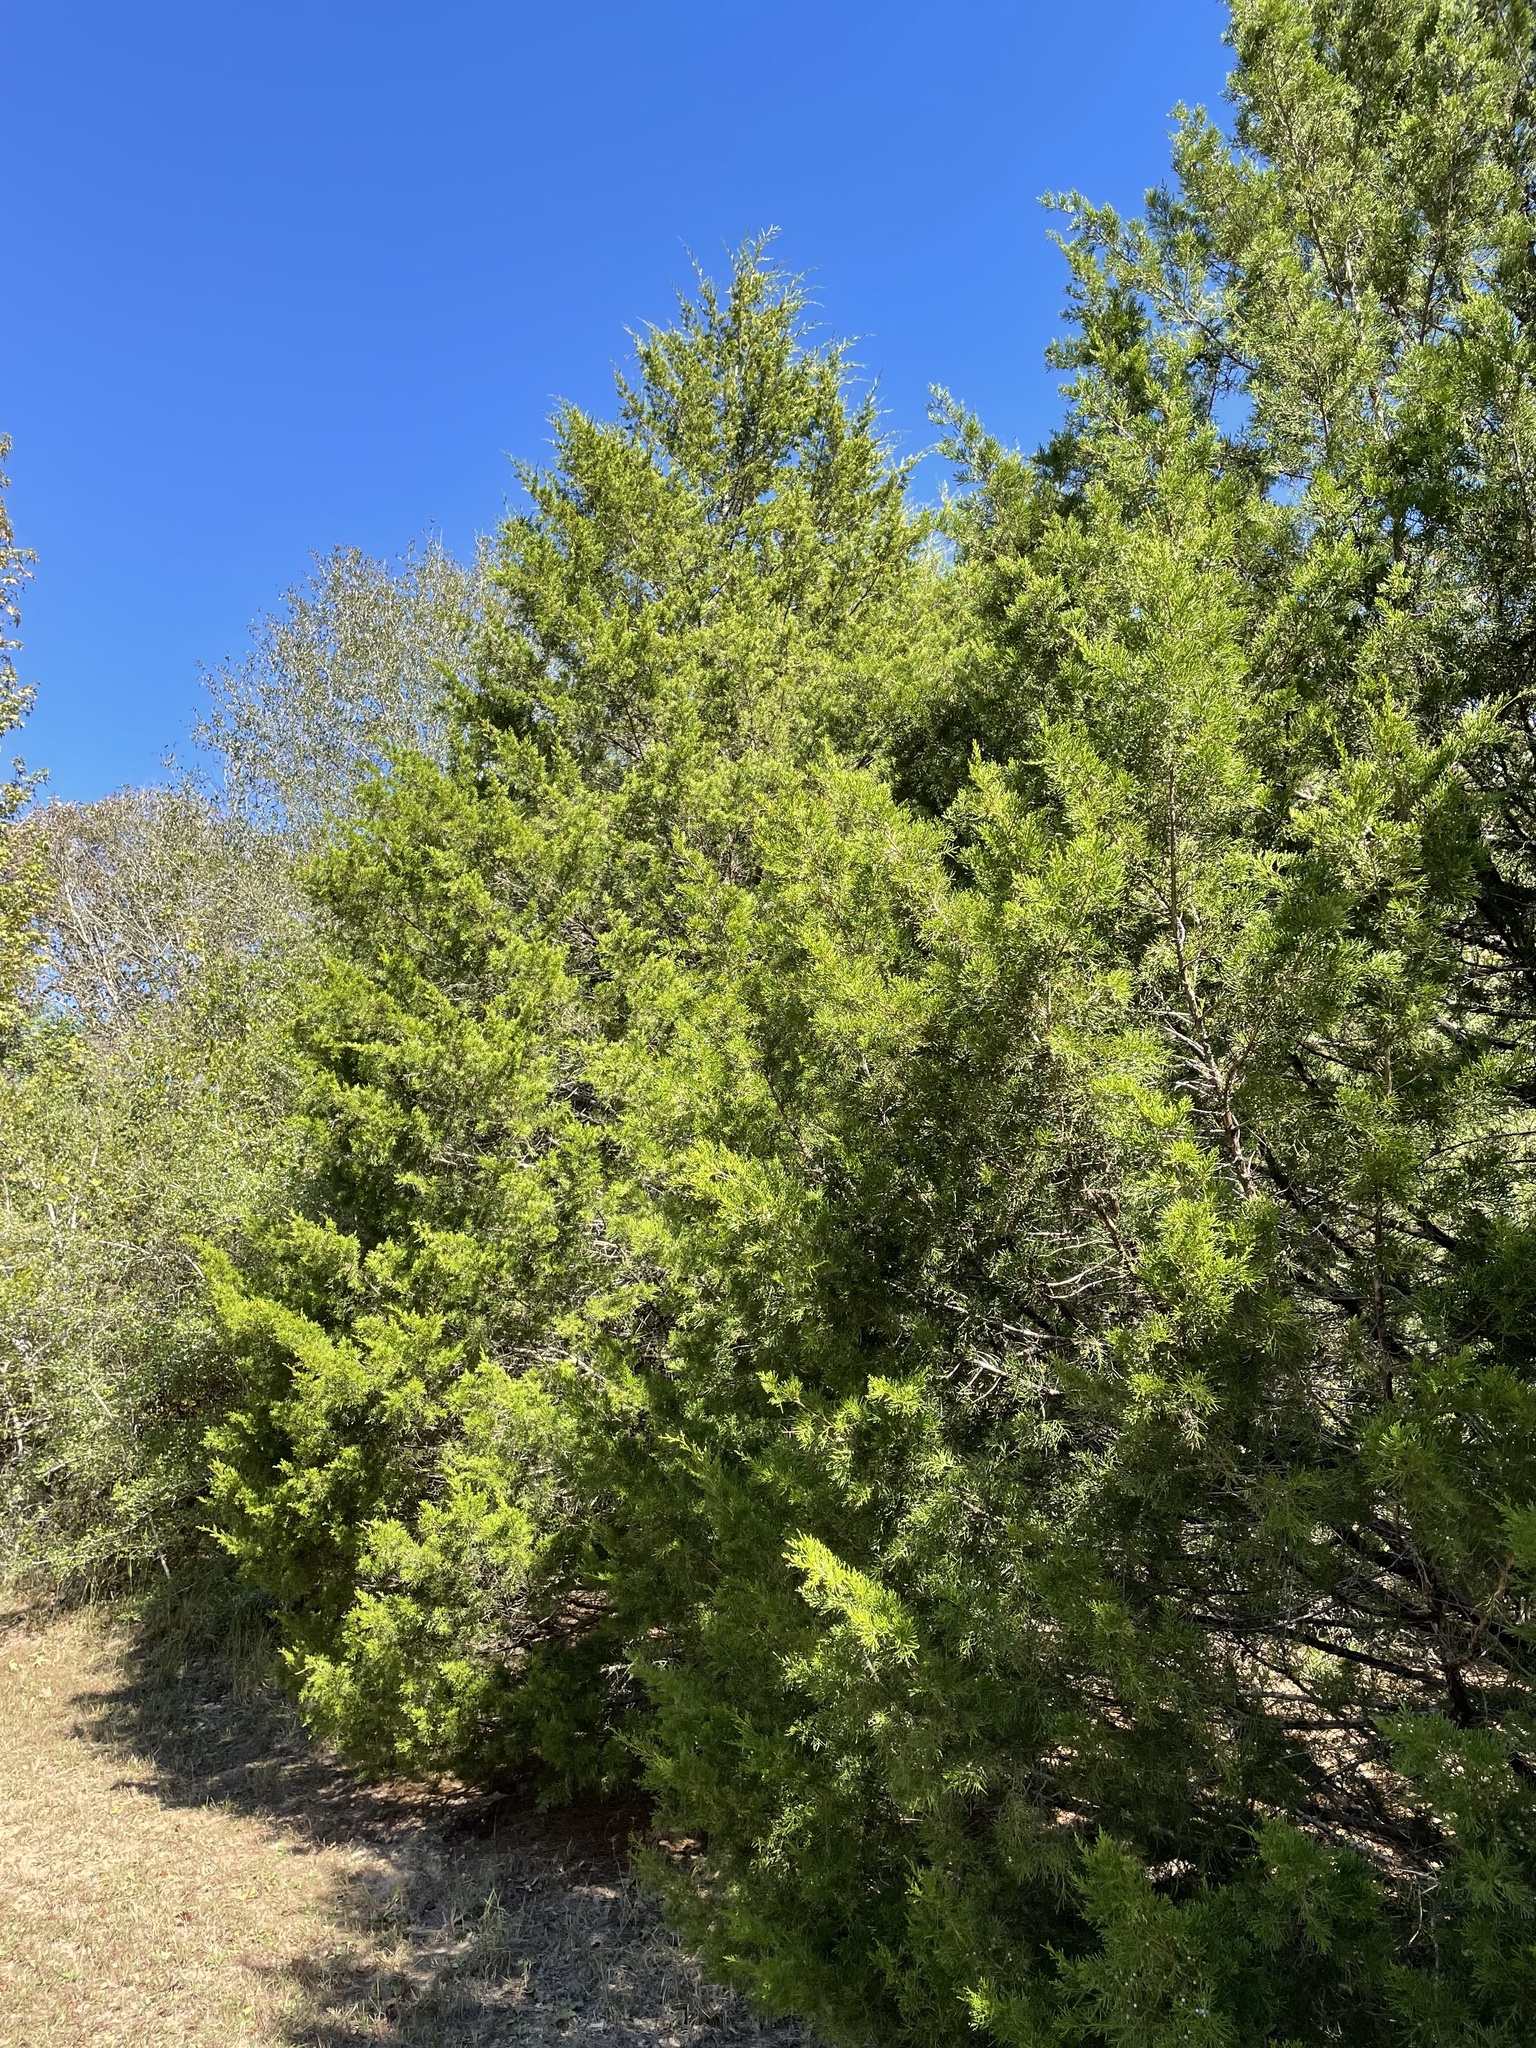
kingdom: Plantae
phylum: Tracheophyta
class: Pinopsida
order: Pinales
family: Cupressaceae
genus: Juniperus
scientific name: Juniperus virginiana
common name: Red juniper
